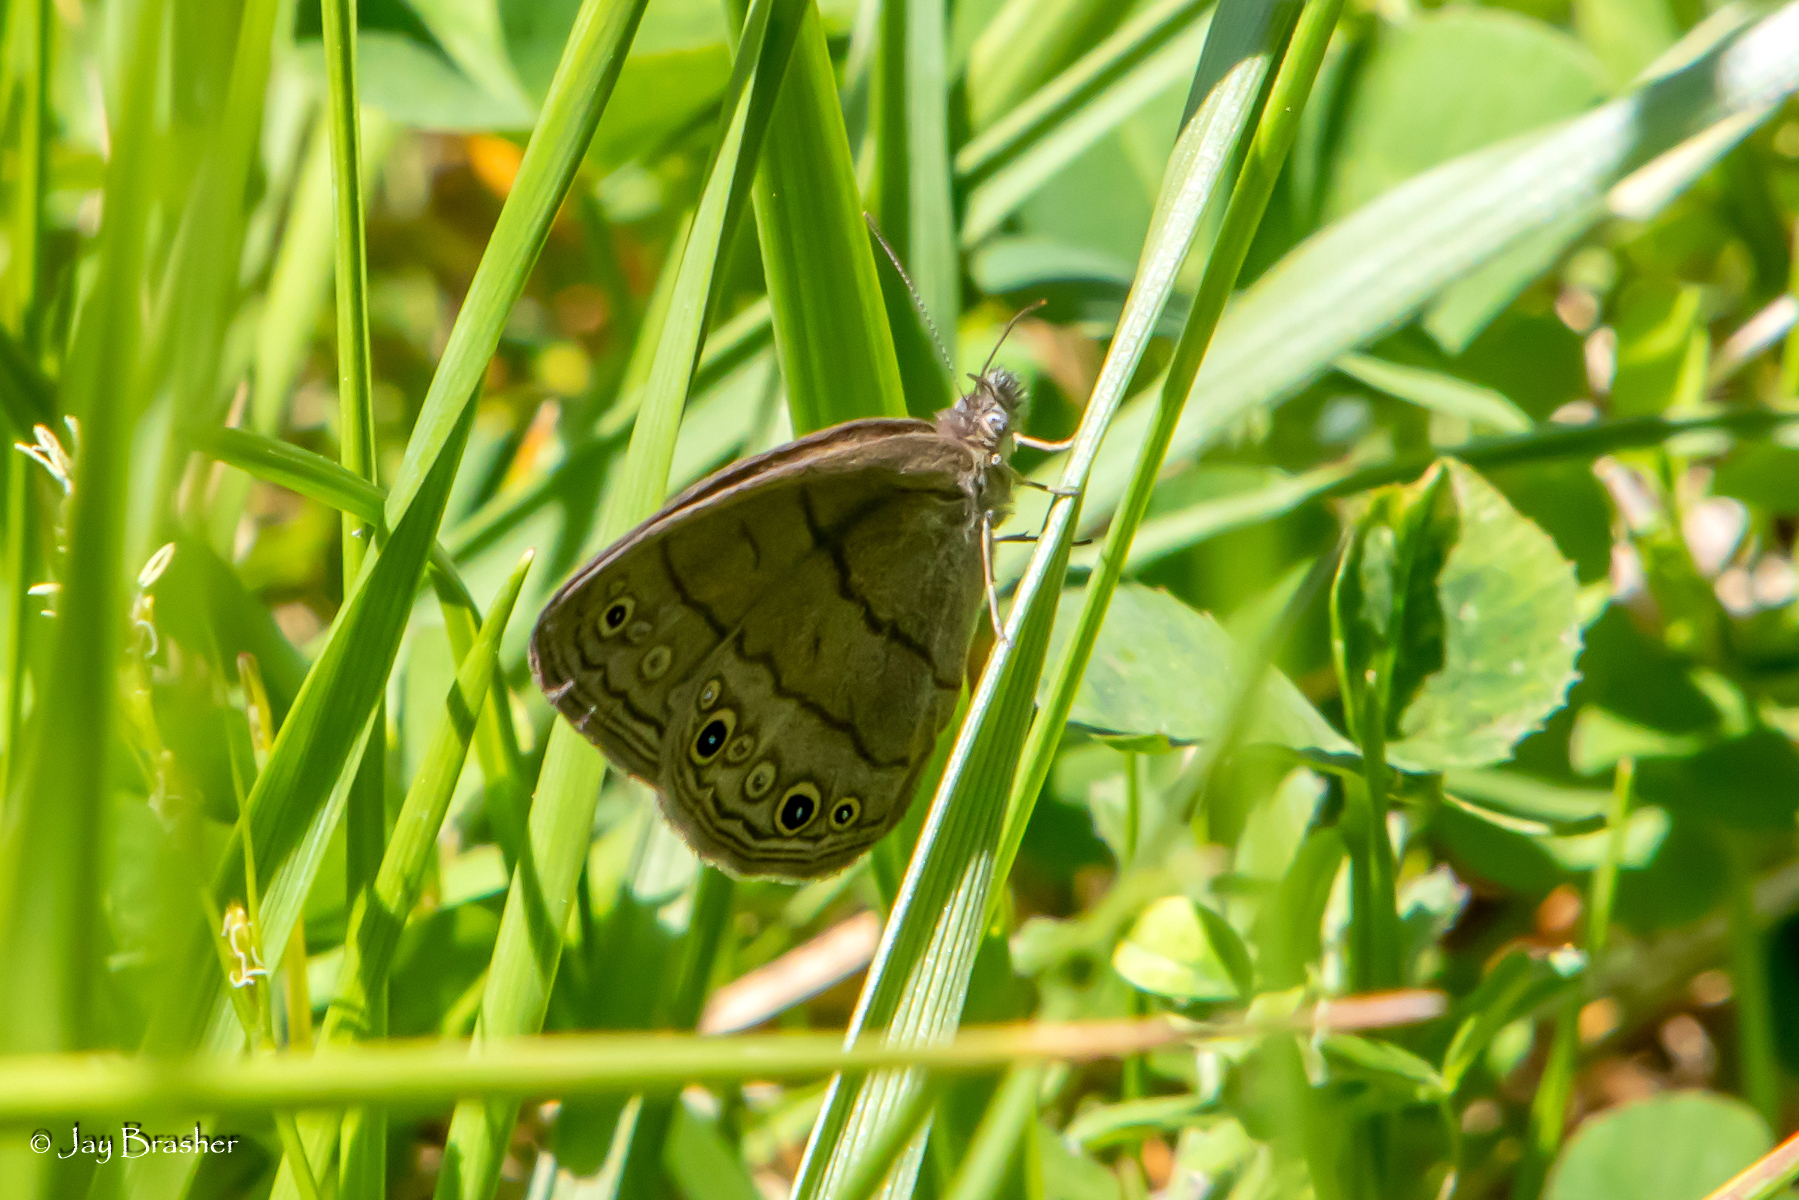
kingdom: Animalia
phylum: Arthropoda
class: Insecta
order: Lepidoptera
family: Nymphalidae
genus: Hermeuptychia
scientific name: Hermeuptychia hermes
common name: Hermes satyr
